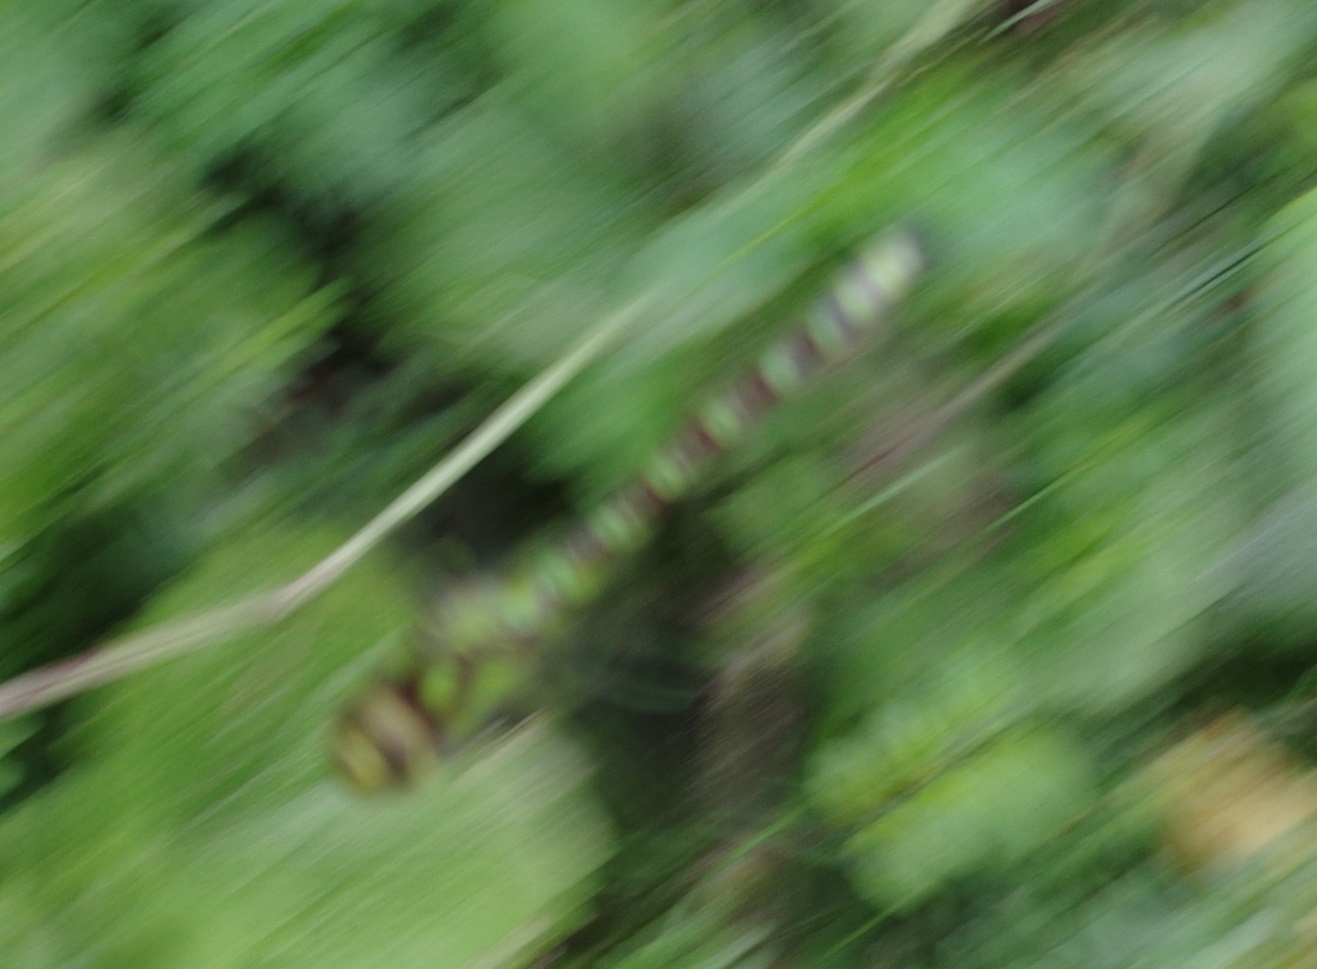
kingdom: Animalia
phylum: Arthropoda
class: Insecta
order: Odonata
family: Aeshnidae
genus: Aeshna
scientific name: Aeshna cyanea
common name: Southern hawker
